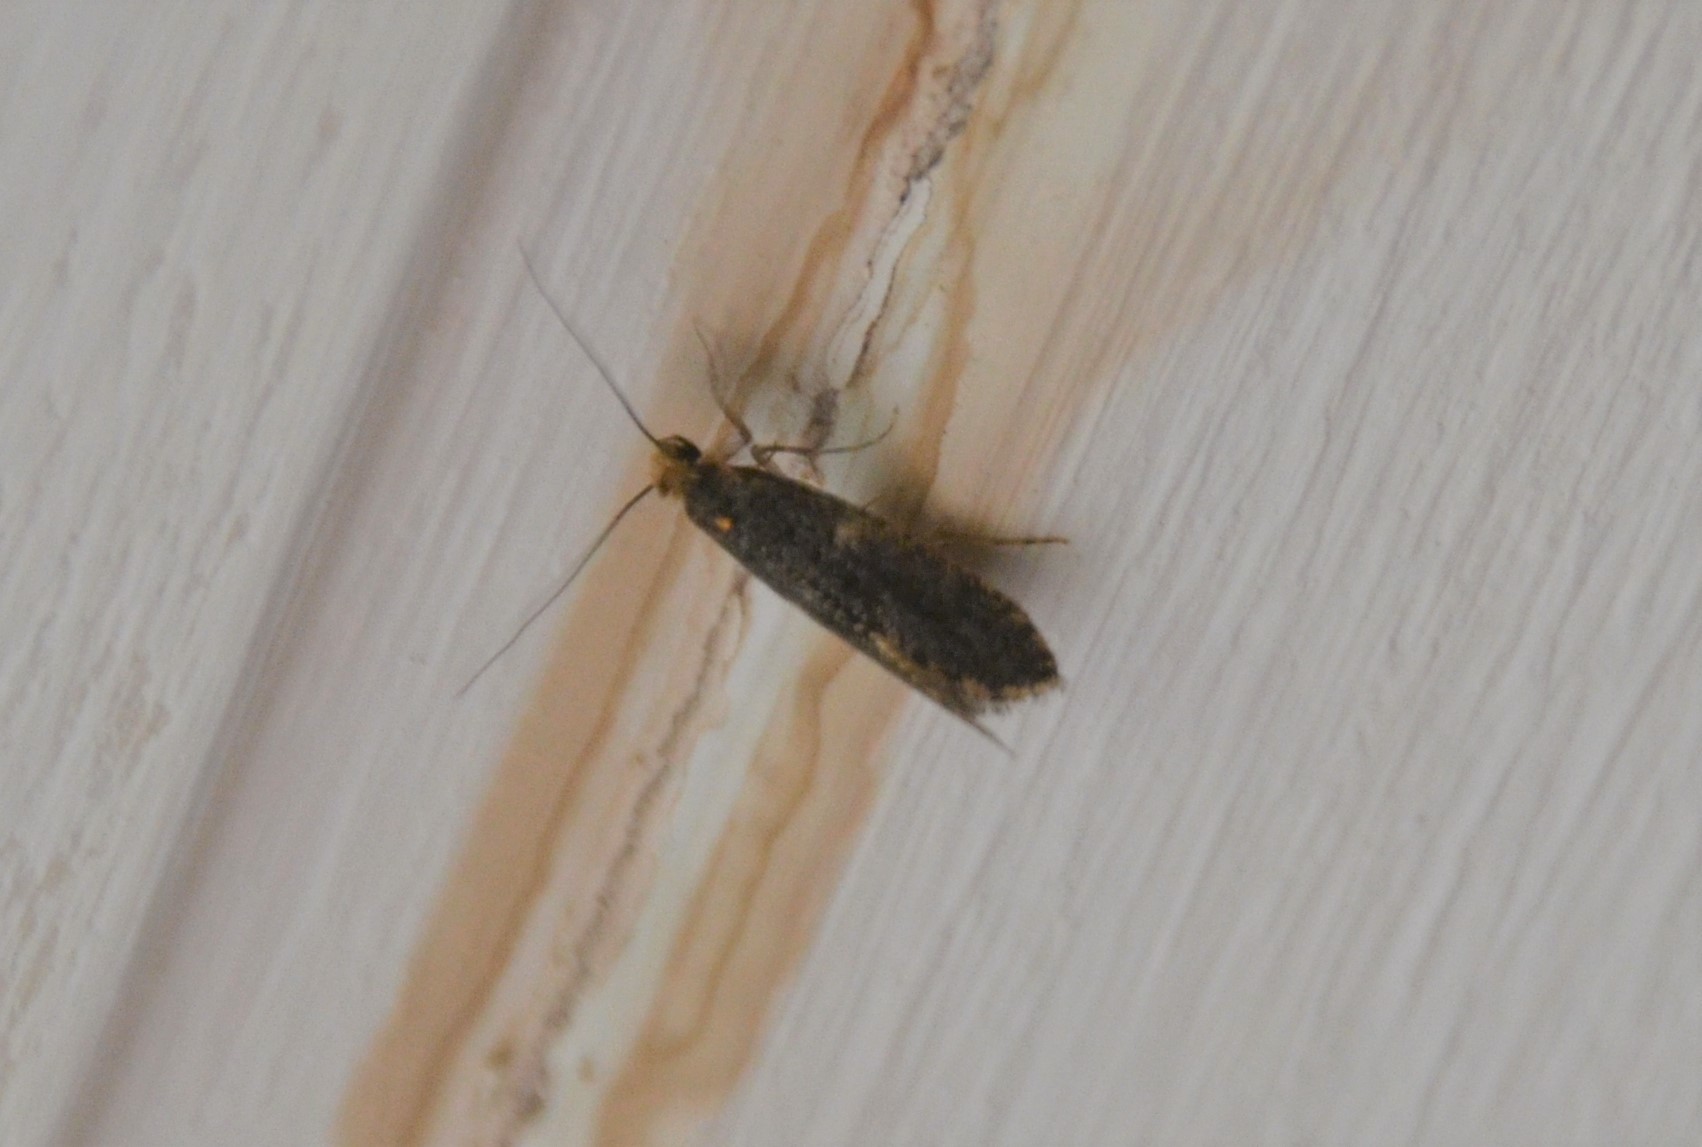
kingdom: Animalia
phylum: Arthropoda
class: Insecta
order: Lepidoptera
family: Tineidae
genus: Nemapogon
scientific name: Nemapogon falstriella
